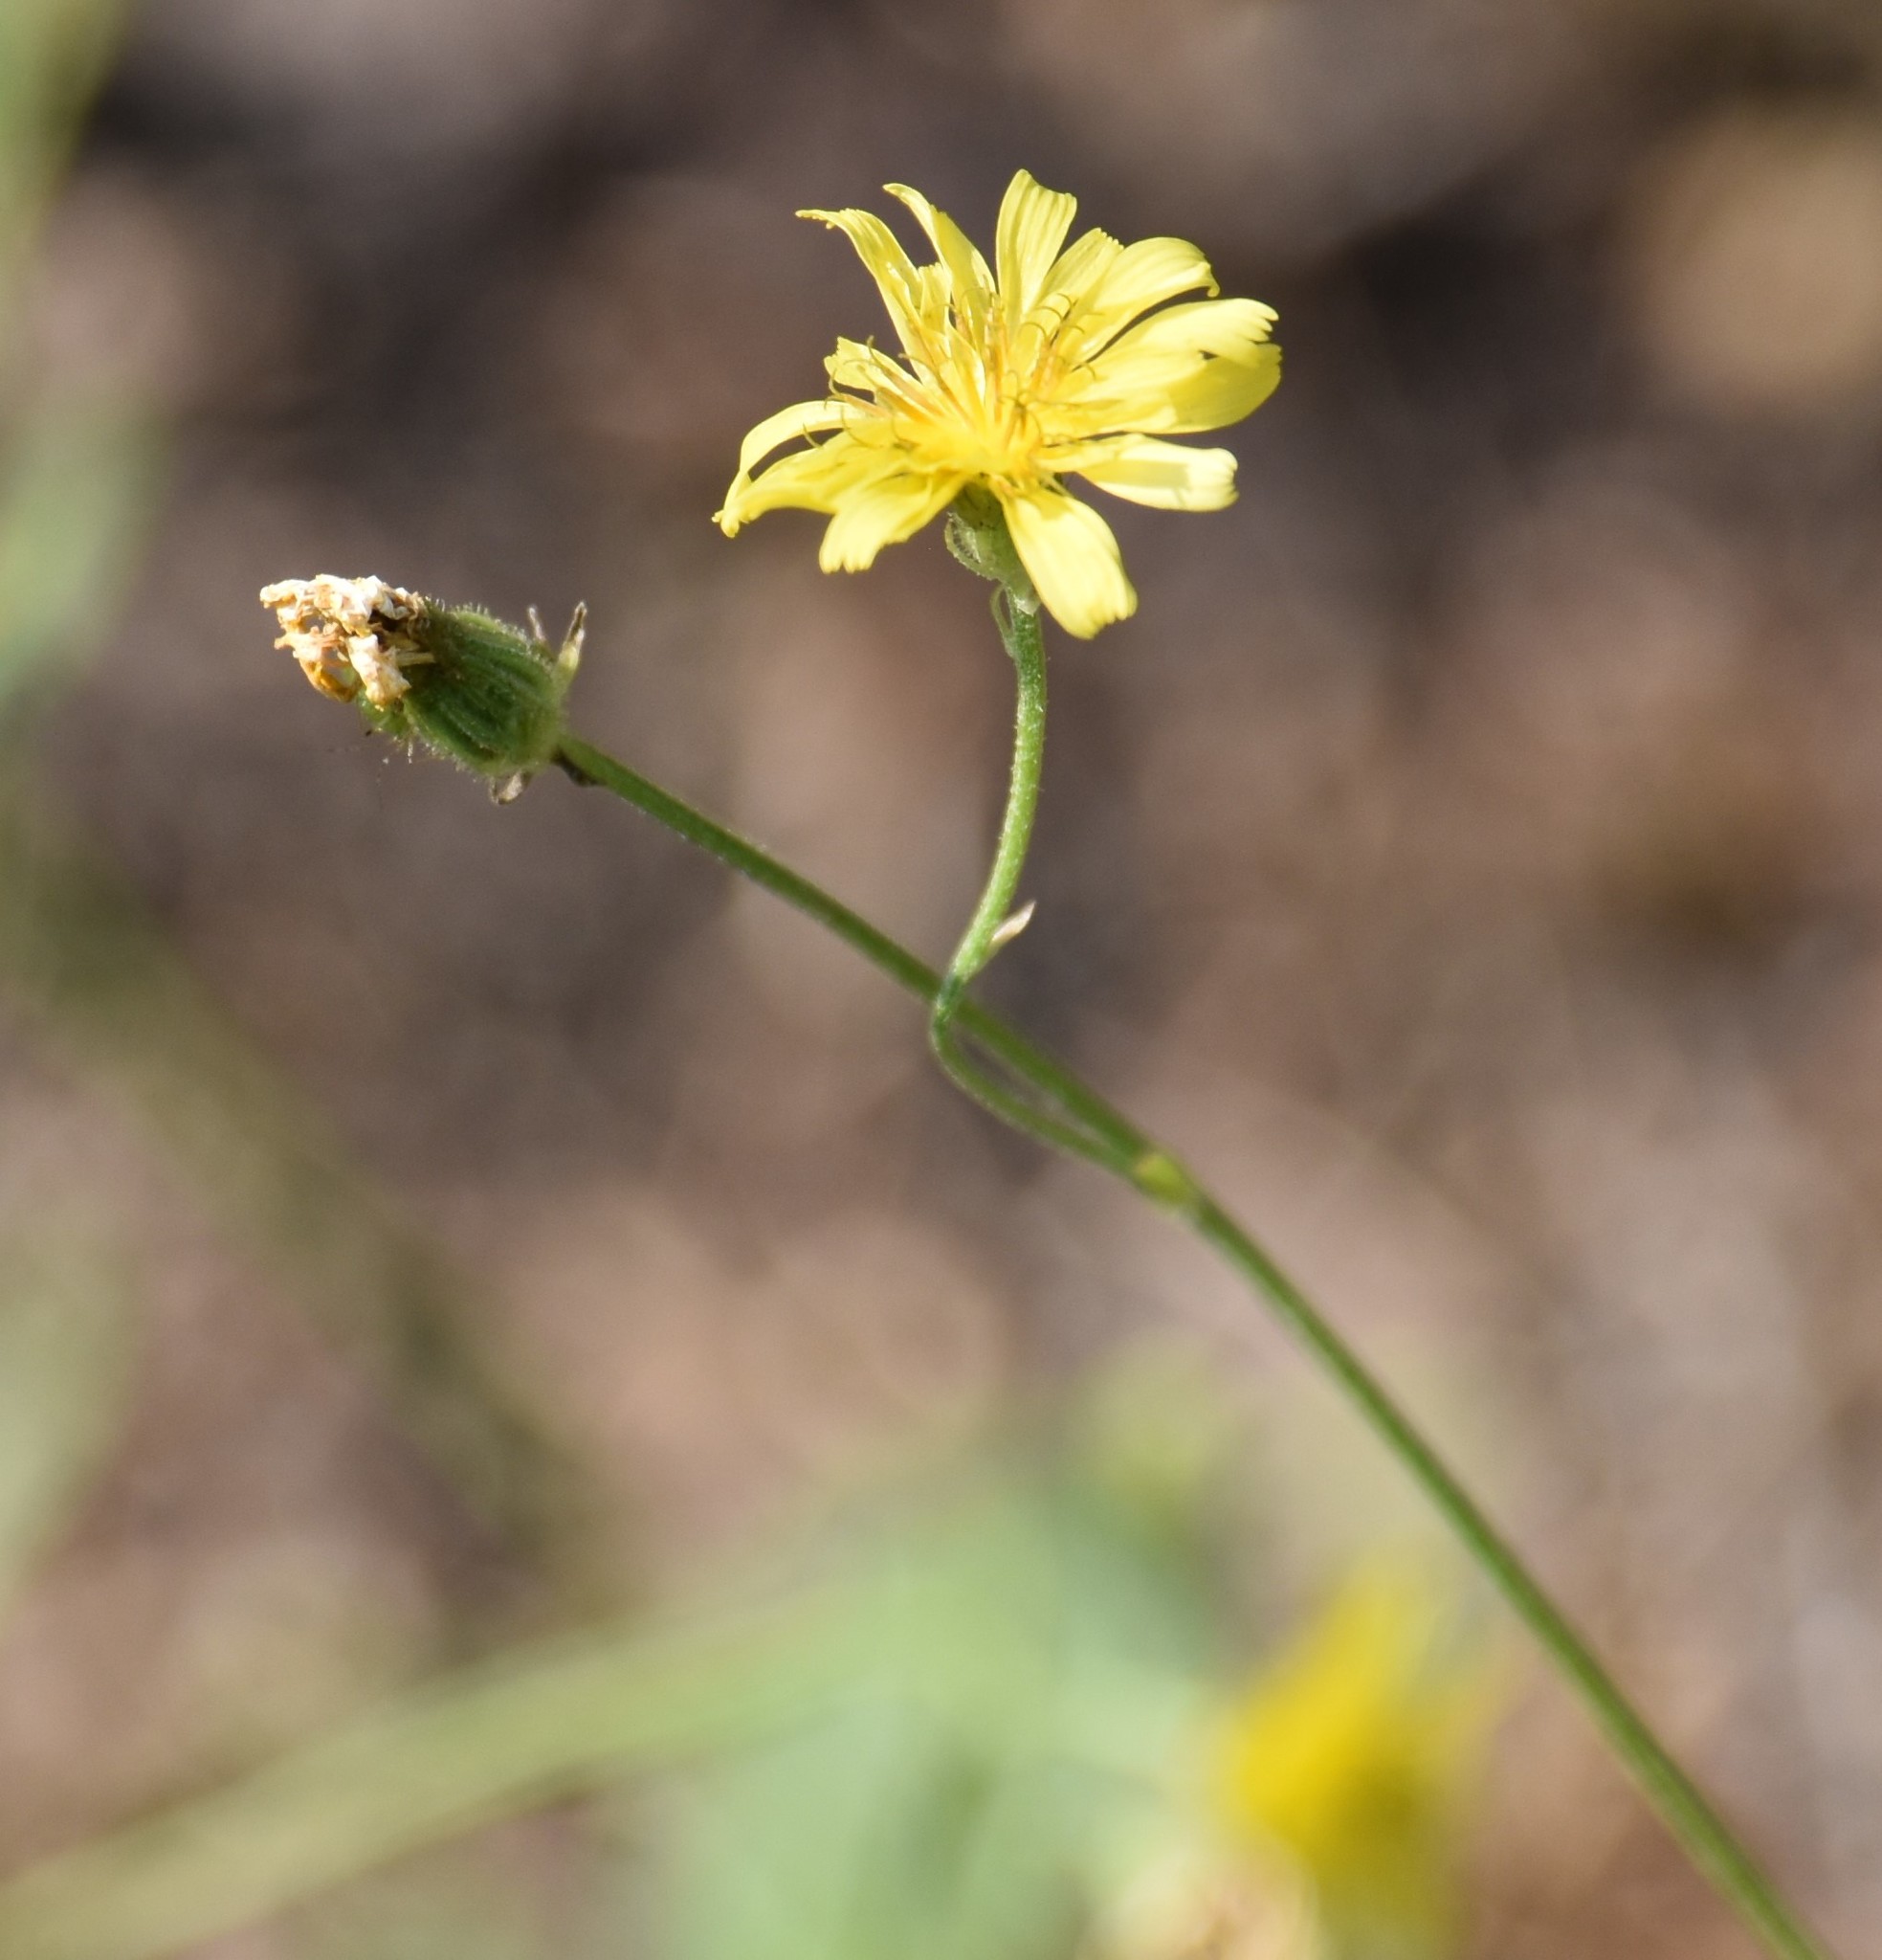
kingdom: Plantae
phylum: Tracheophyta
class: Magnoliopsida
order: Asterales
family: Asteraceae
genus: Crepis
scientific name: Crepis tectorum
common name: Narrow-leaved hawk's-beard
